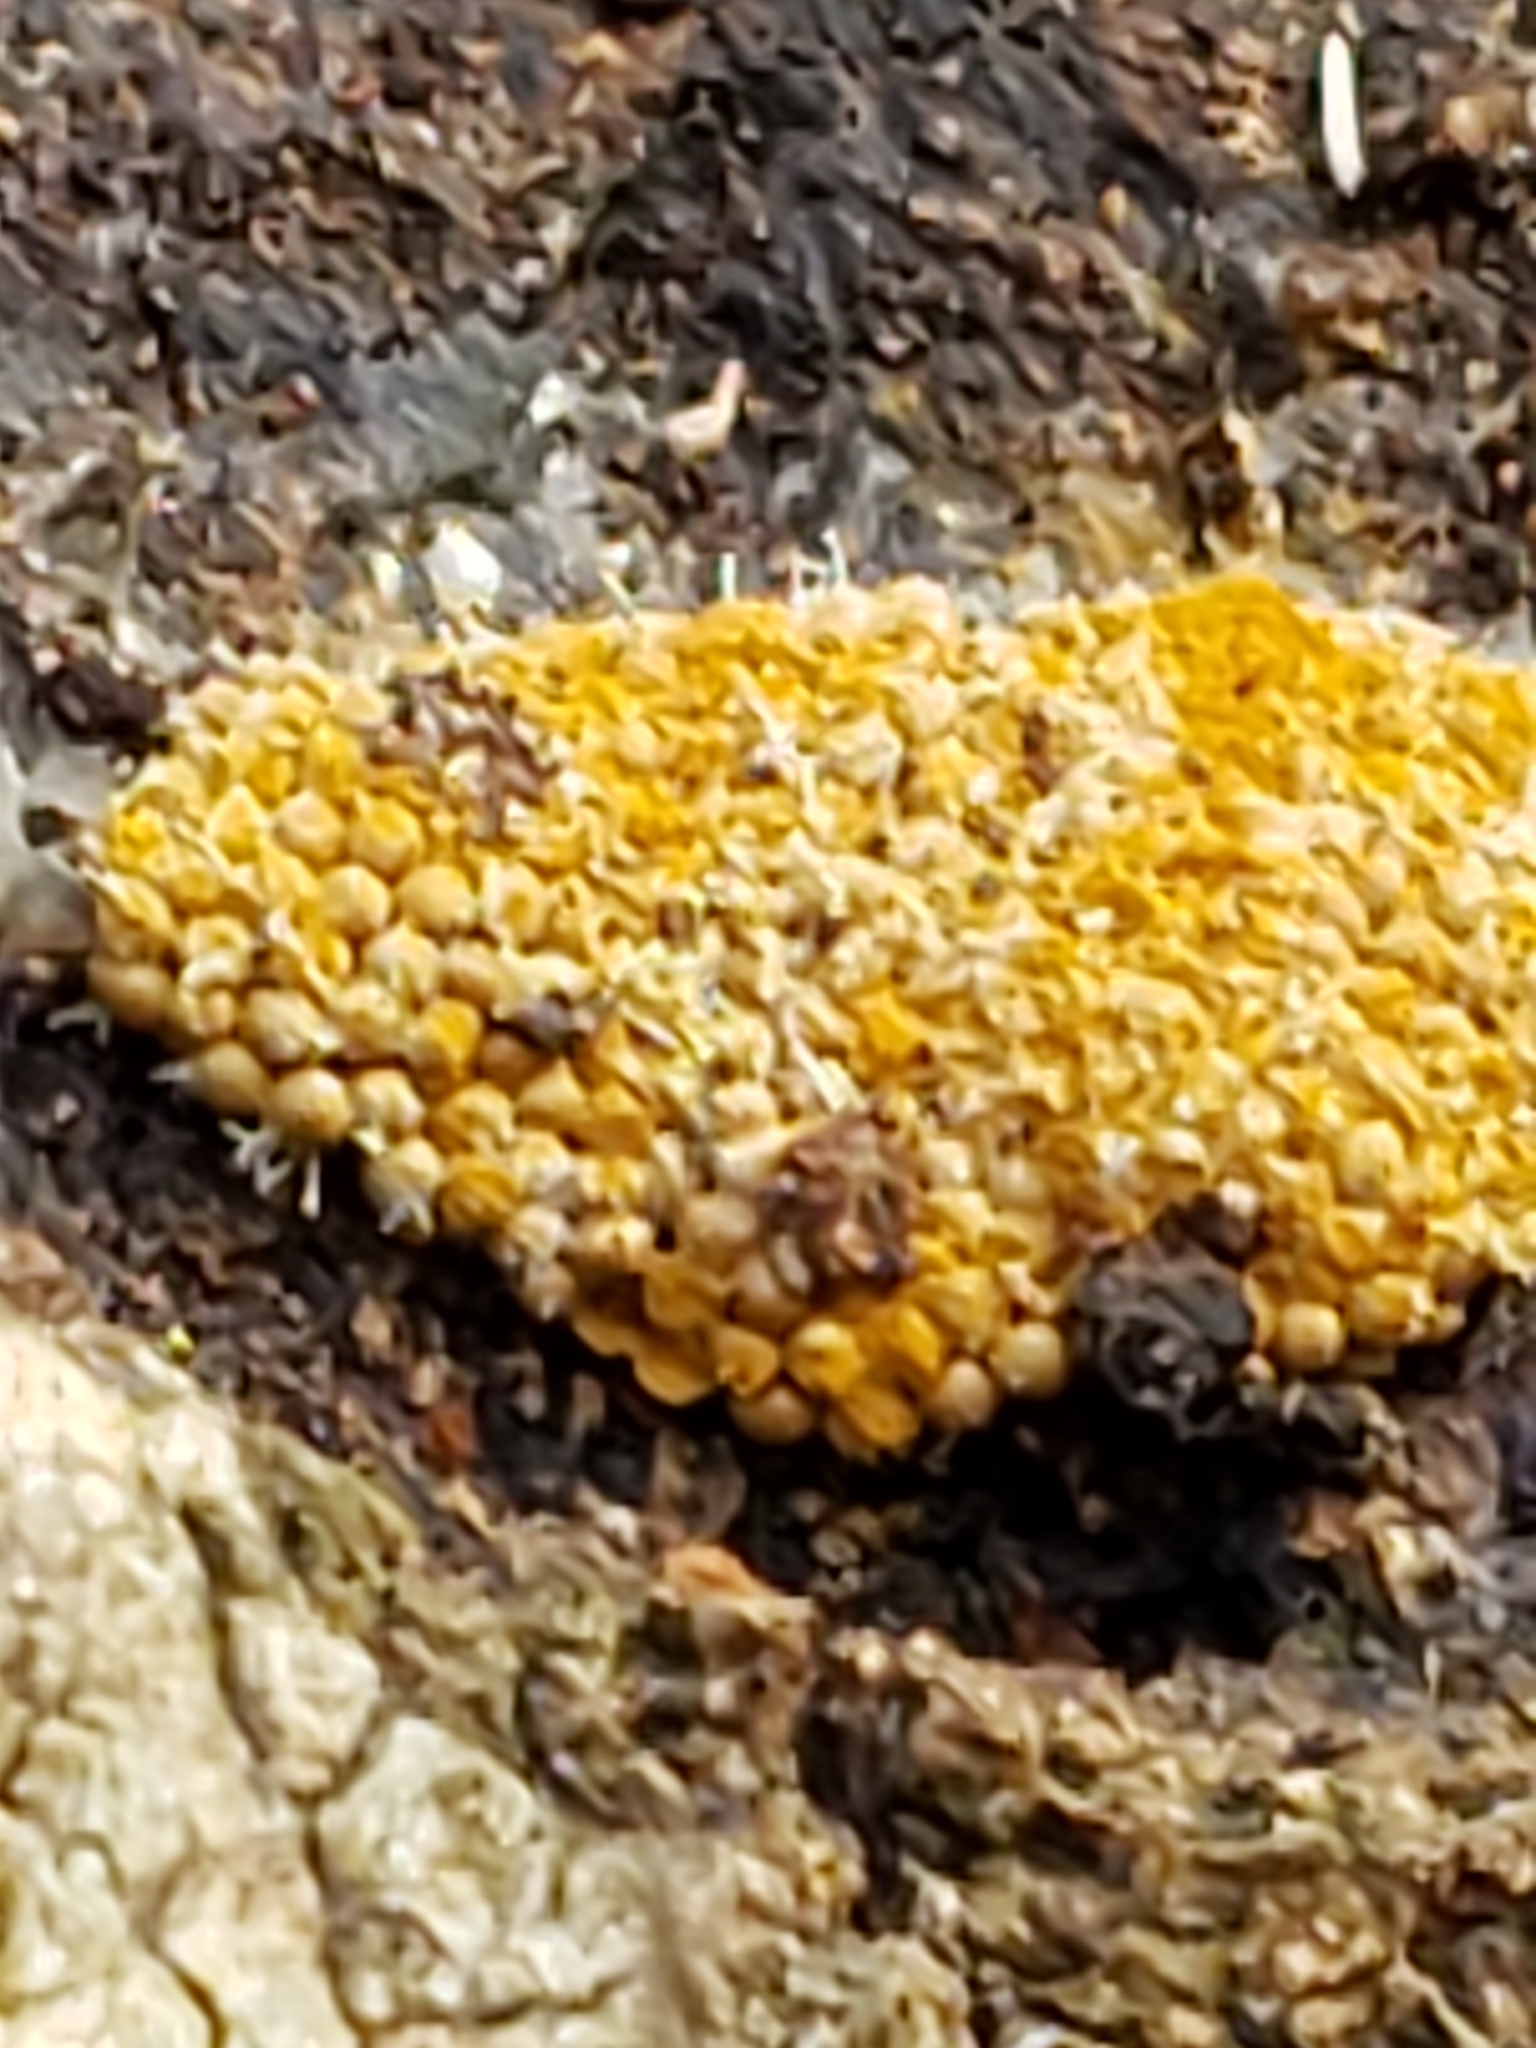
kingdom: Fungi
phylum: Ascomycota
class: Sordariomycetes
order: Hypocreales
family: Ophiocordycipitaceae
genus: Polycephalomyces
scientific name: Polycephalomyces tomentosus
